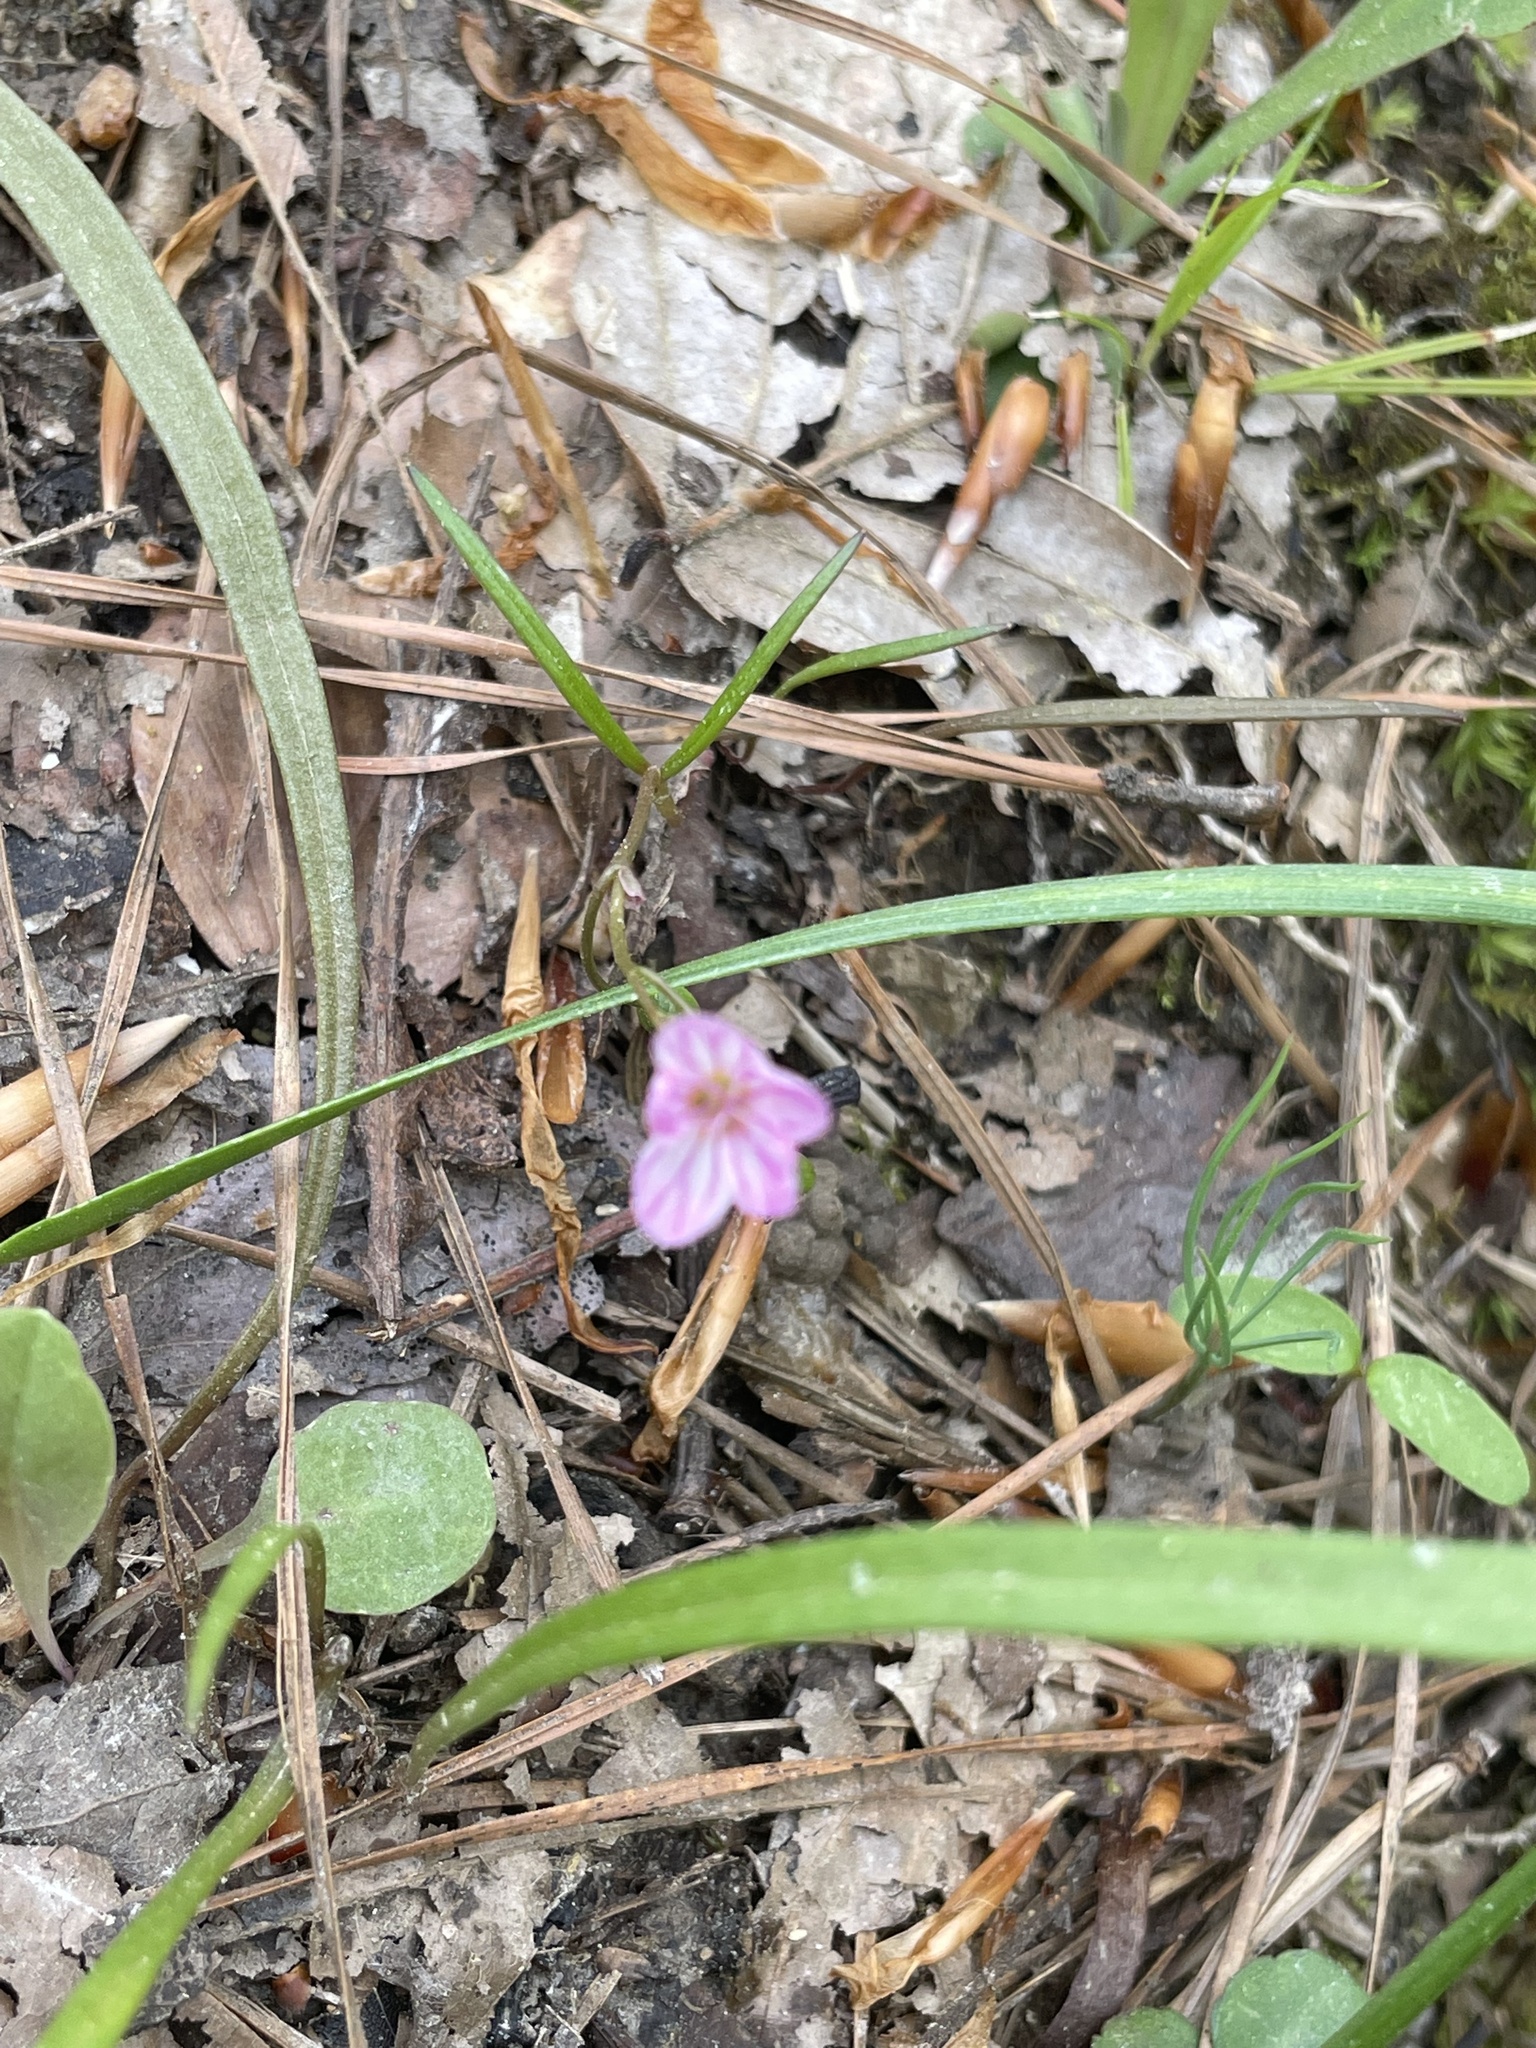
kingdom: Plantae
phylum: Tracheophyta
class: Magnoliopsida
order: Caryophyllales
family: Montiaceae
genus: Claytonia
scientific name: Claytonia virginica
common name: Virginia springbeauty
